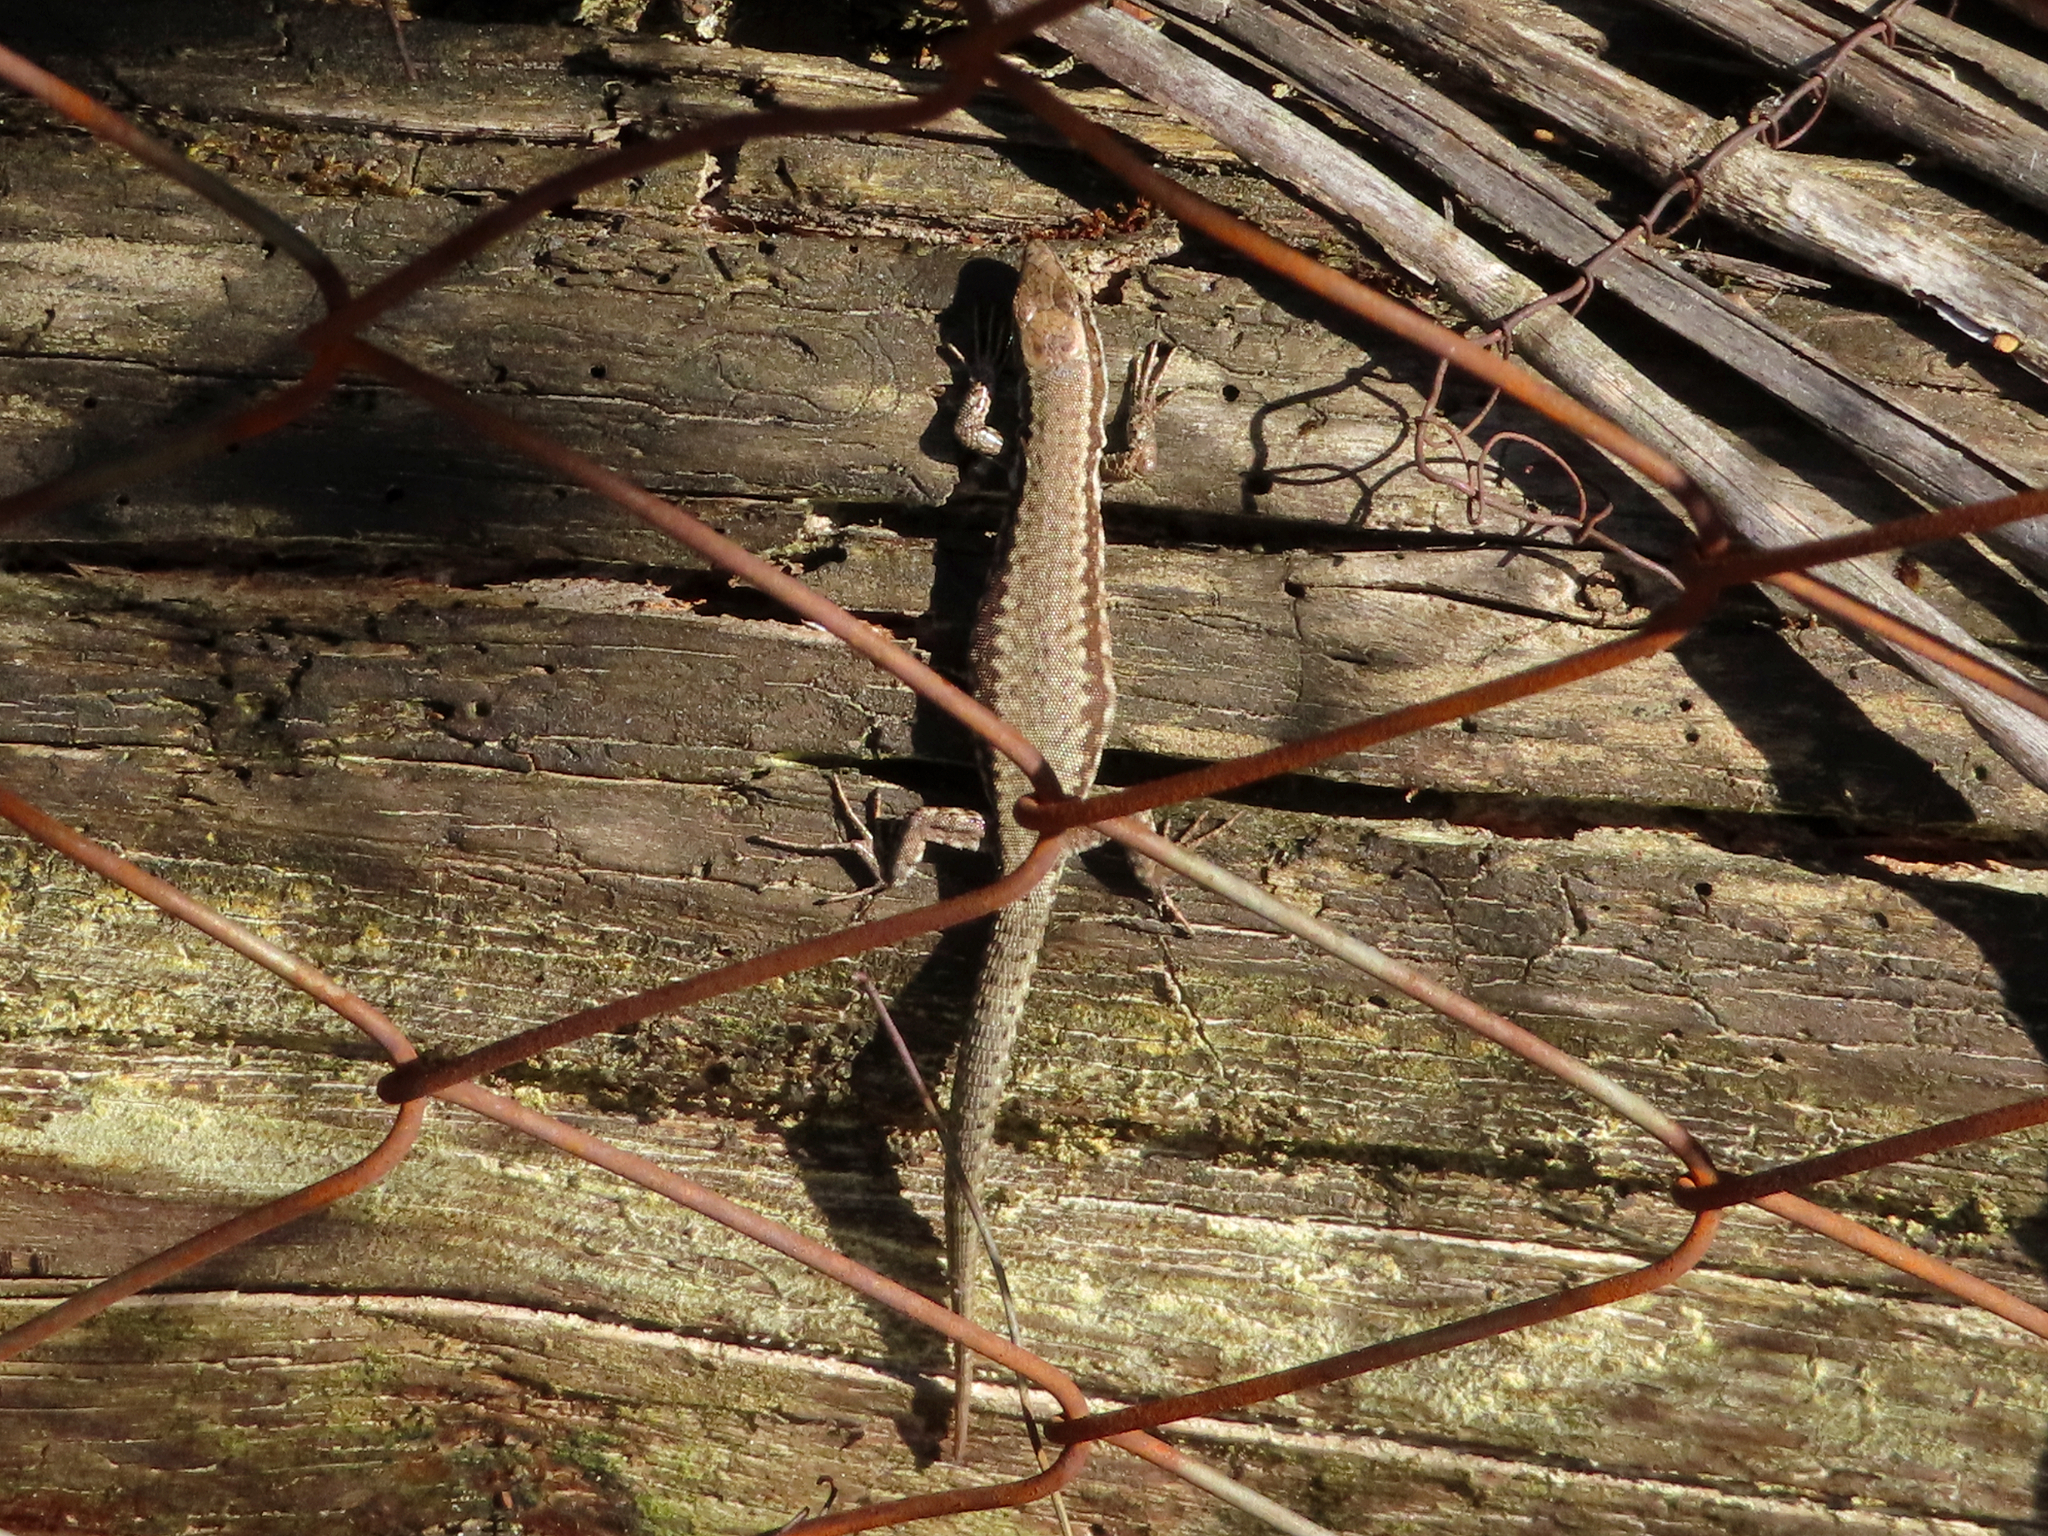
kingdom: Animalia
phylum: Chordata
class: Squamata
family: Lacertidae
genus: Podarcis
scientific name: Podarcis muralis
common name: Common wall lizard
